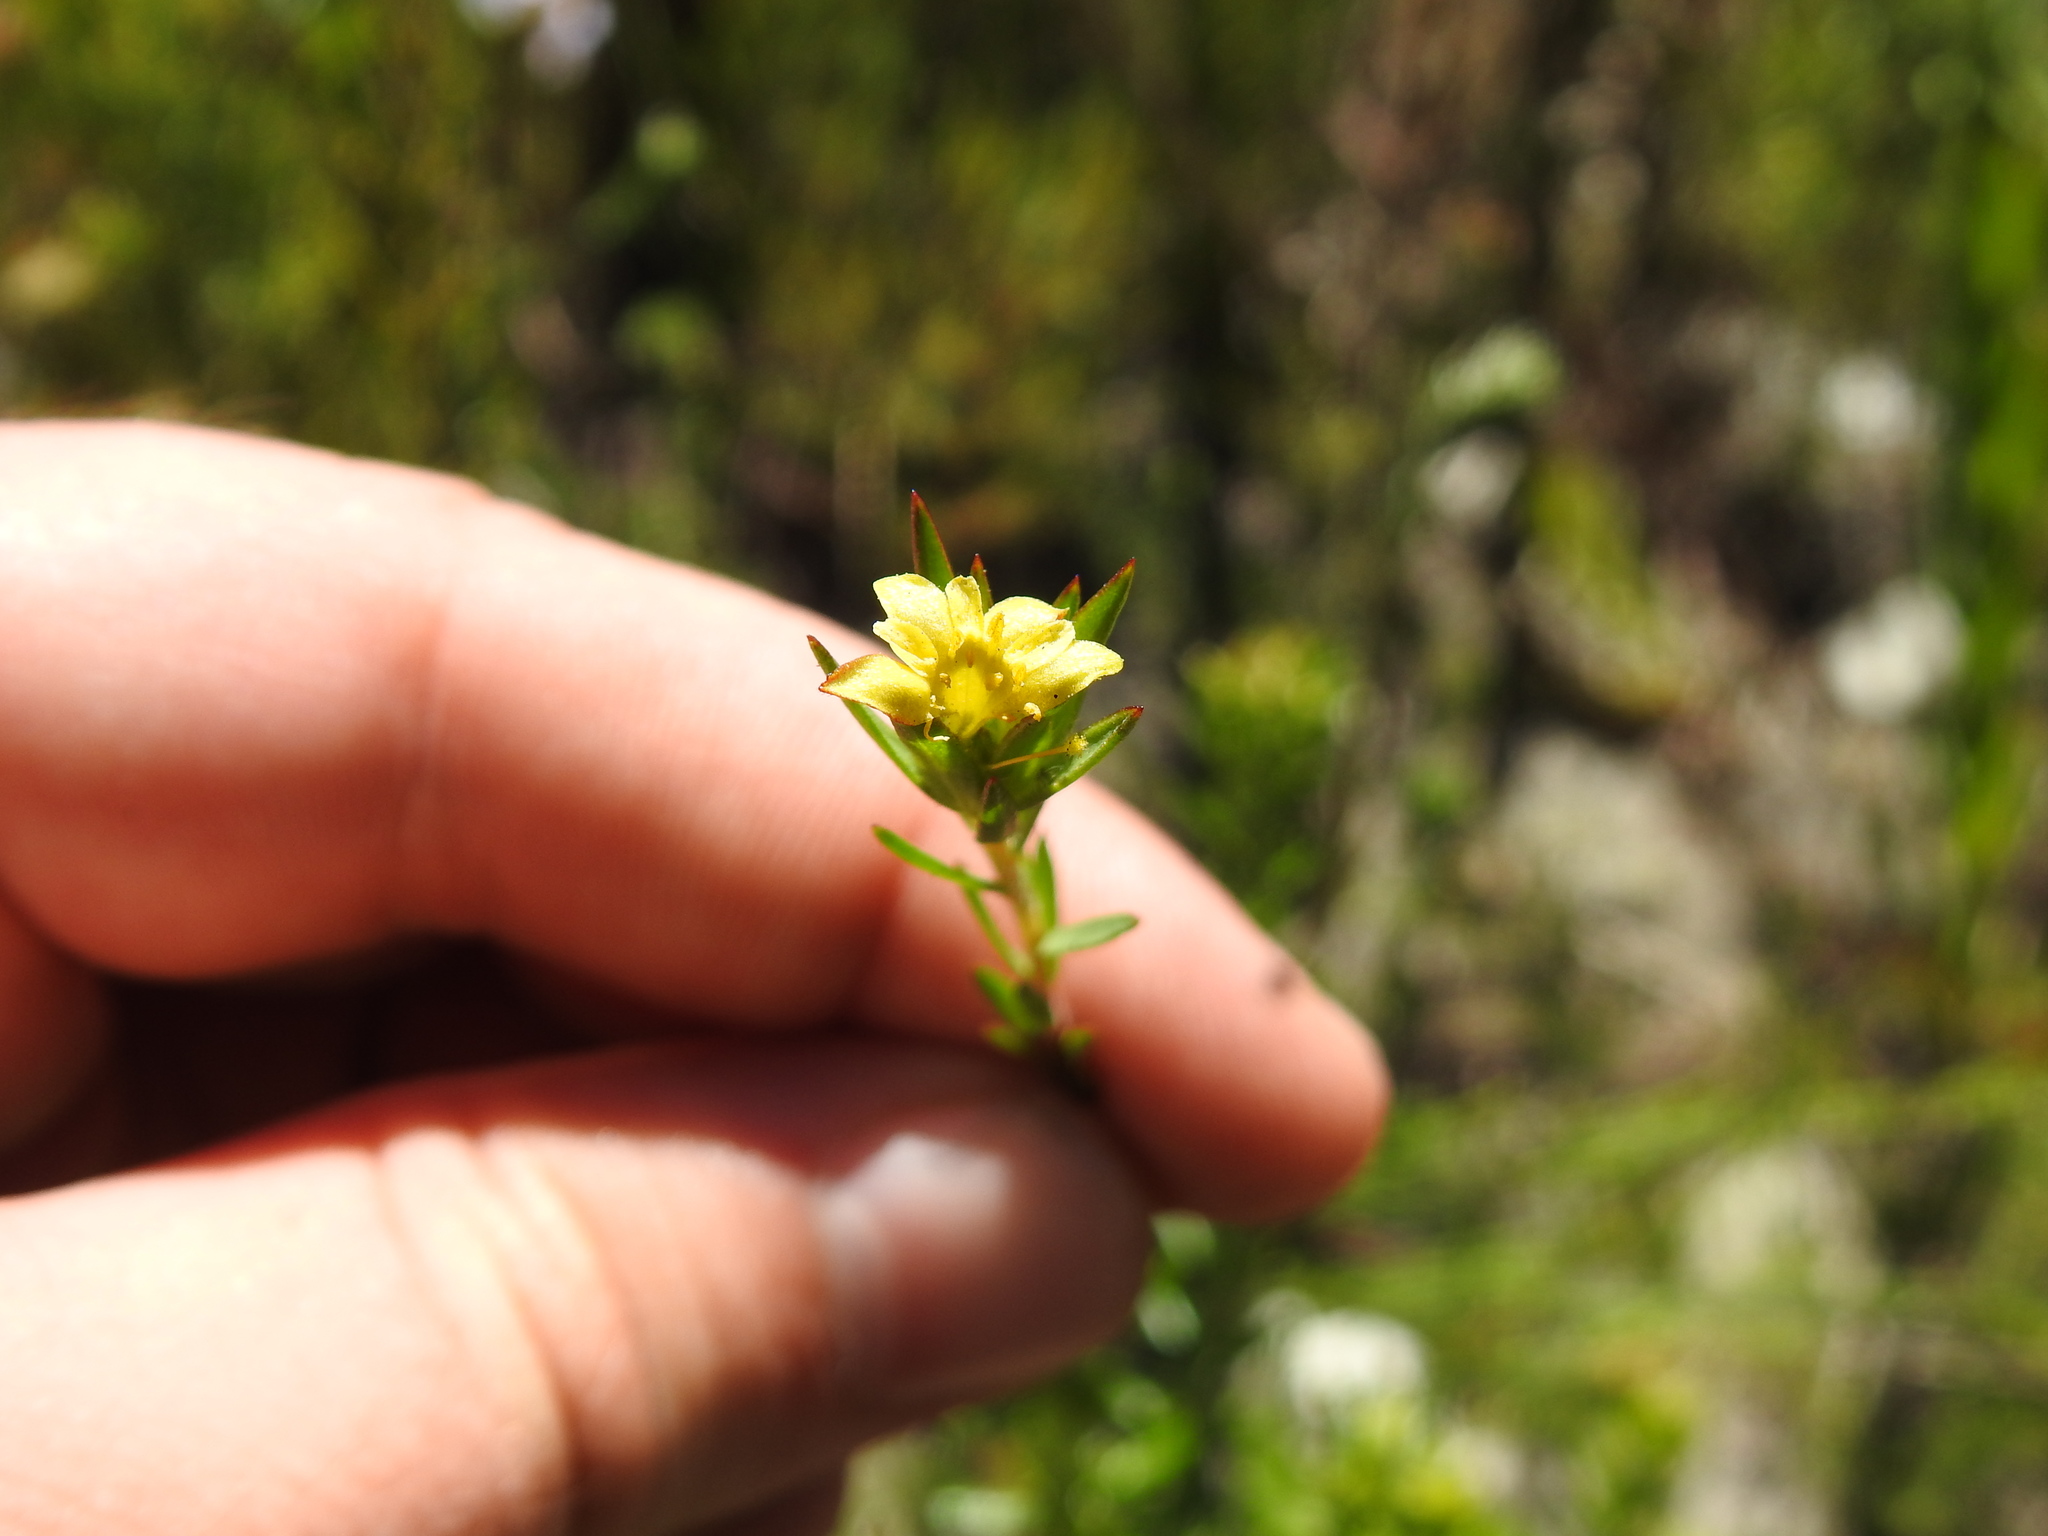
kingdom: Plantae
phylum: Tracheophyta
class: Magnoliopsida
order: Malvales
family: Thymelaeaceae
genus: Gnidia
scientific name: Gnidia simplex
